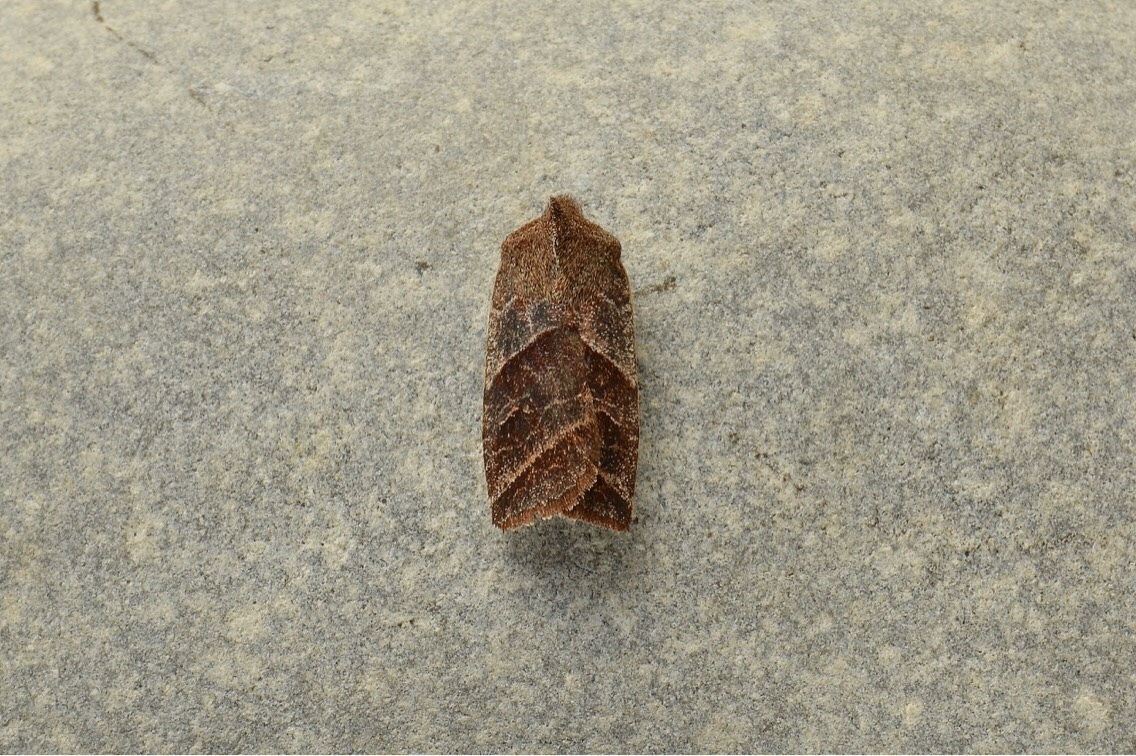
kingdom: Animalia
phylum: Arthropoda
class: Insecta
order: Lepidoptera
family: Noctuidae
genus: Eupsilia
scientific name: Eupsilia devia
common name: Lost sallow
